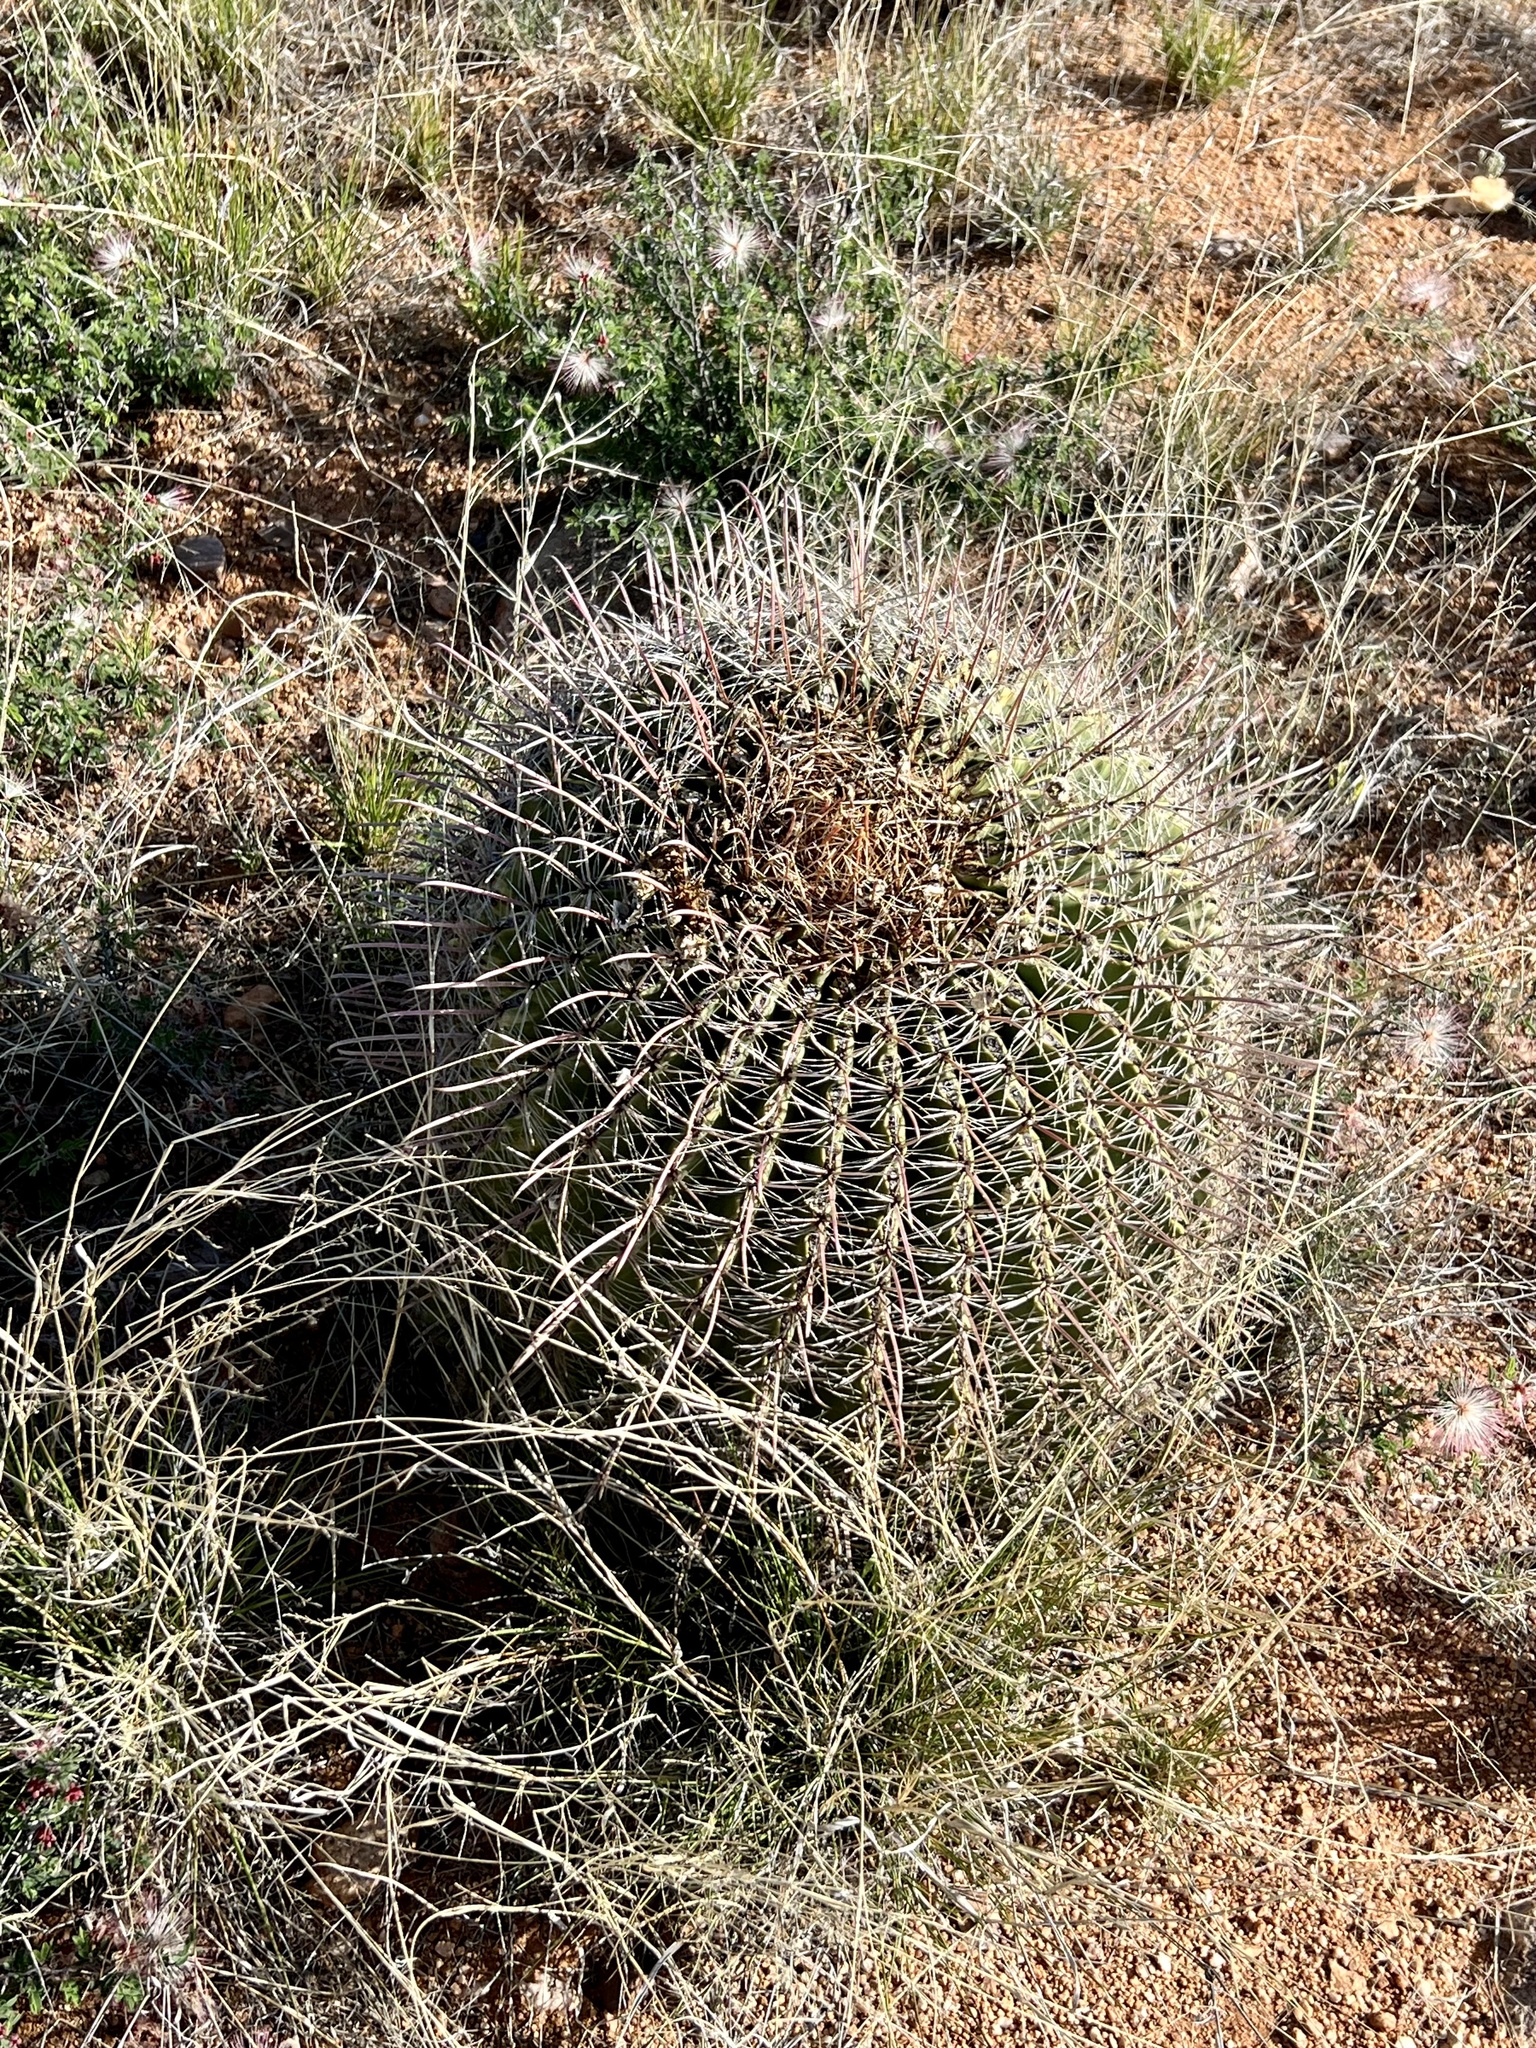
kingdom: Plantae
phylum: Tracheophyta
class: Magnoliopsida
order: Caryophyllales
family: Cactaceae
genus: Ferocactus
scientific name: Ferocactus wislizeni
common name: Candy barrel cactus
